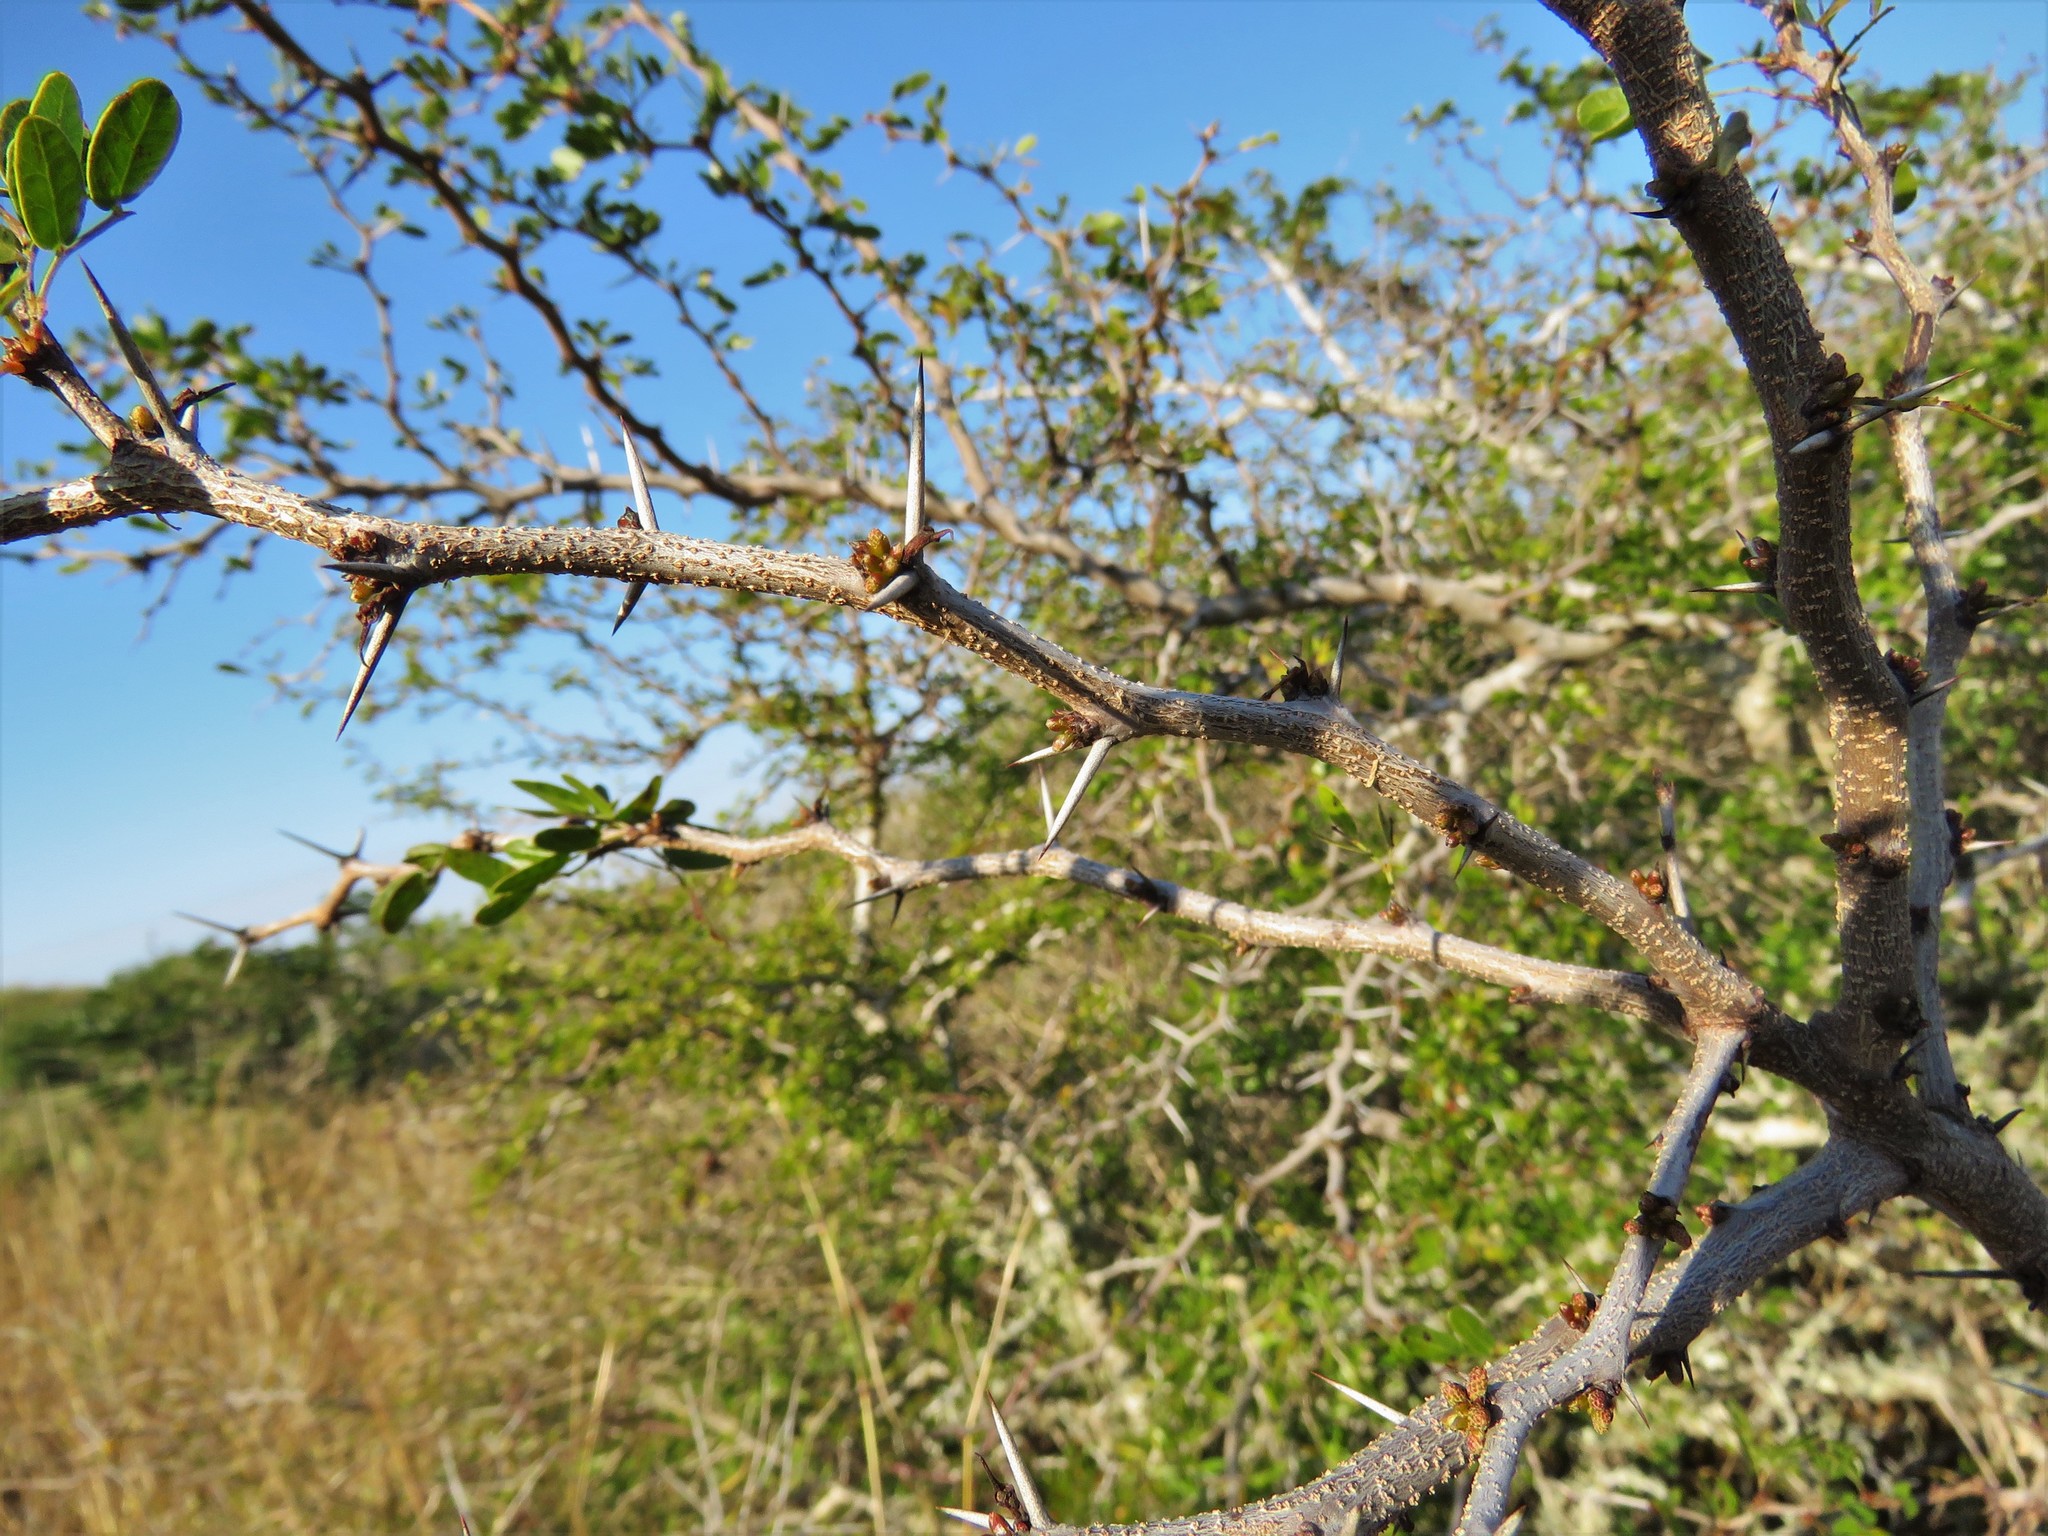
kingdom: Plantae
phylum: Tracheophyta
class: Magnoliopsida
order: Fabales
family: Fabaceae
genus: Vachellia
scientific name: Vachellia rigidula
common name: Blackbrush
